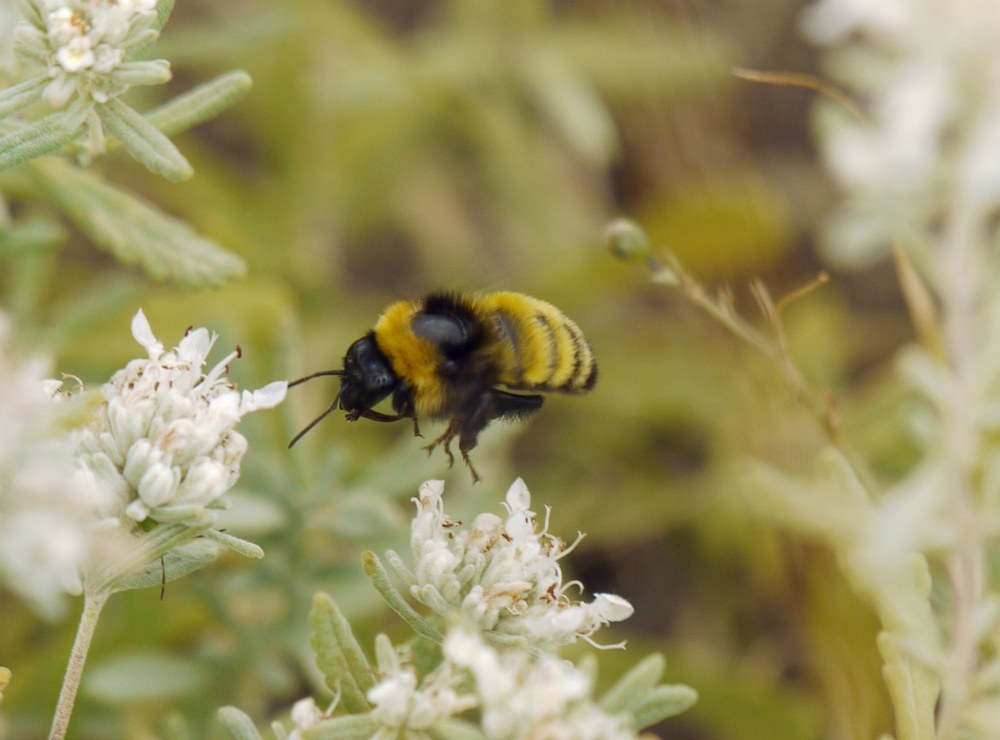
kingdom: Animalia
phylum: Arthropoda
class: Insecta
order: Hymenoptera
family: Apidae
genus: Bombus
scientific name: Bombus zonatus
